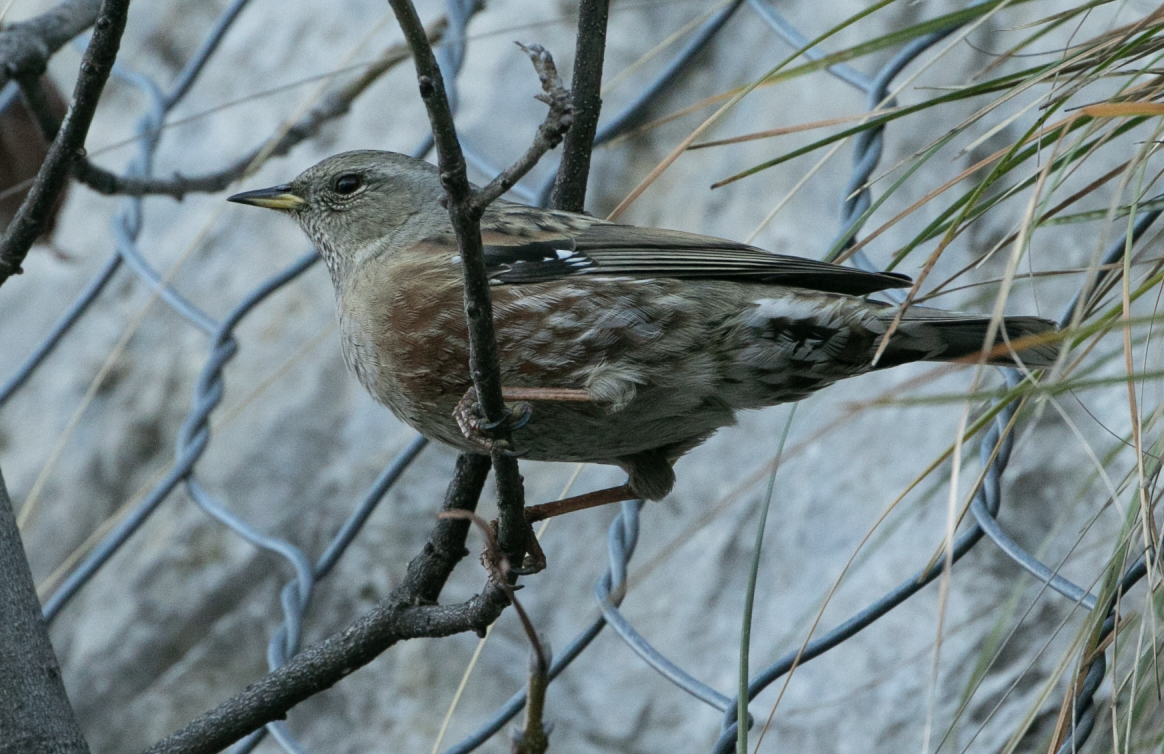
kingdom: Animalia
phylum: Chordata
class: Aves
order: Passeriformes
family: Prunellidae
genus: Prunella
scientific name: Prunella collaris
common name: Alpine accentor
